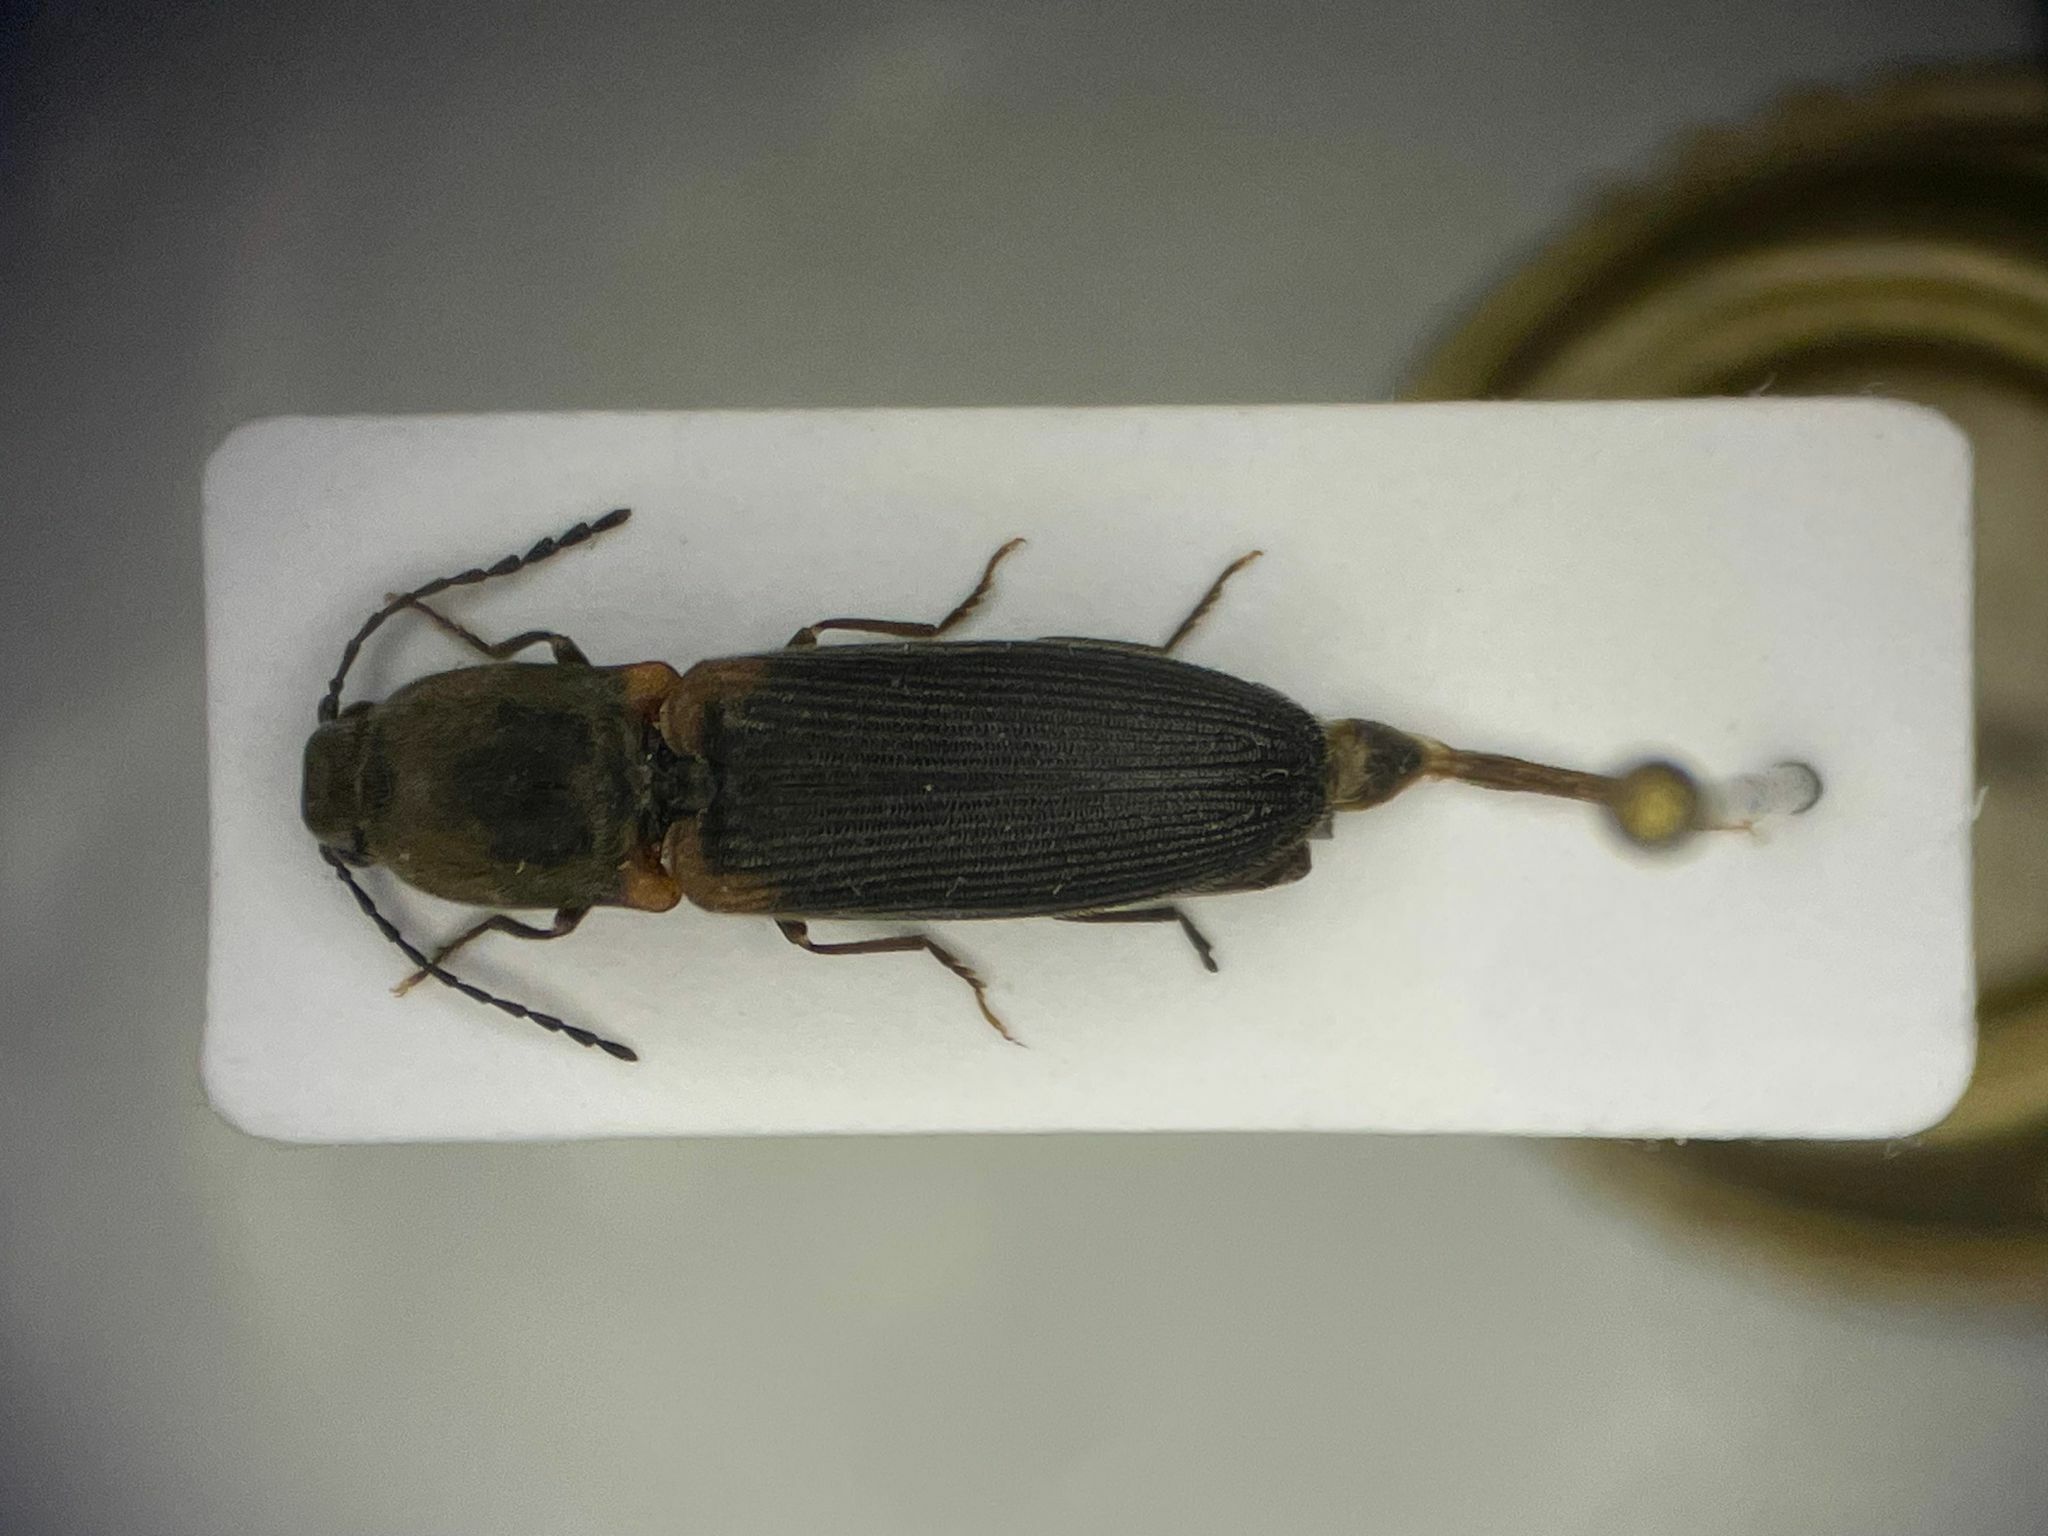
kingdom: Animalia
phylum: Arthropoda
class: Insecta
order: Coleoptera
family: Elateridae
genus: Athous
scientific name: Athous scapularis
